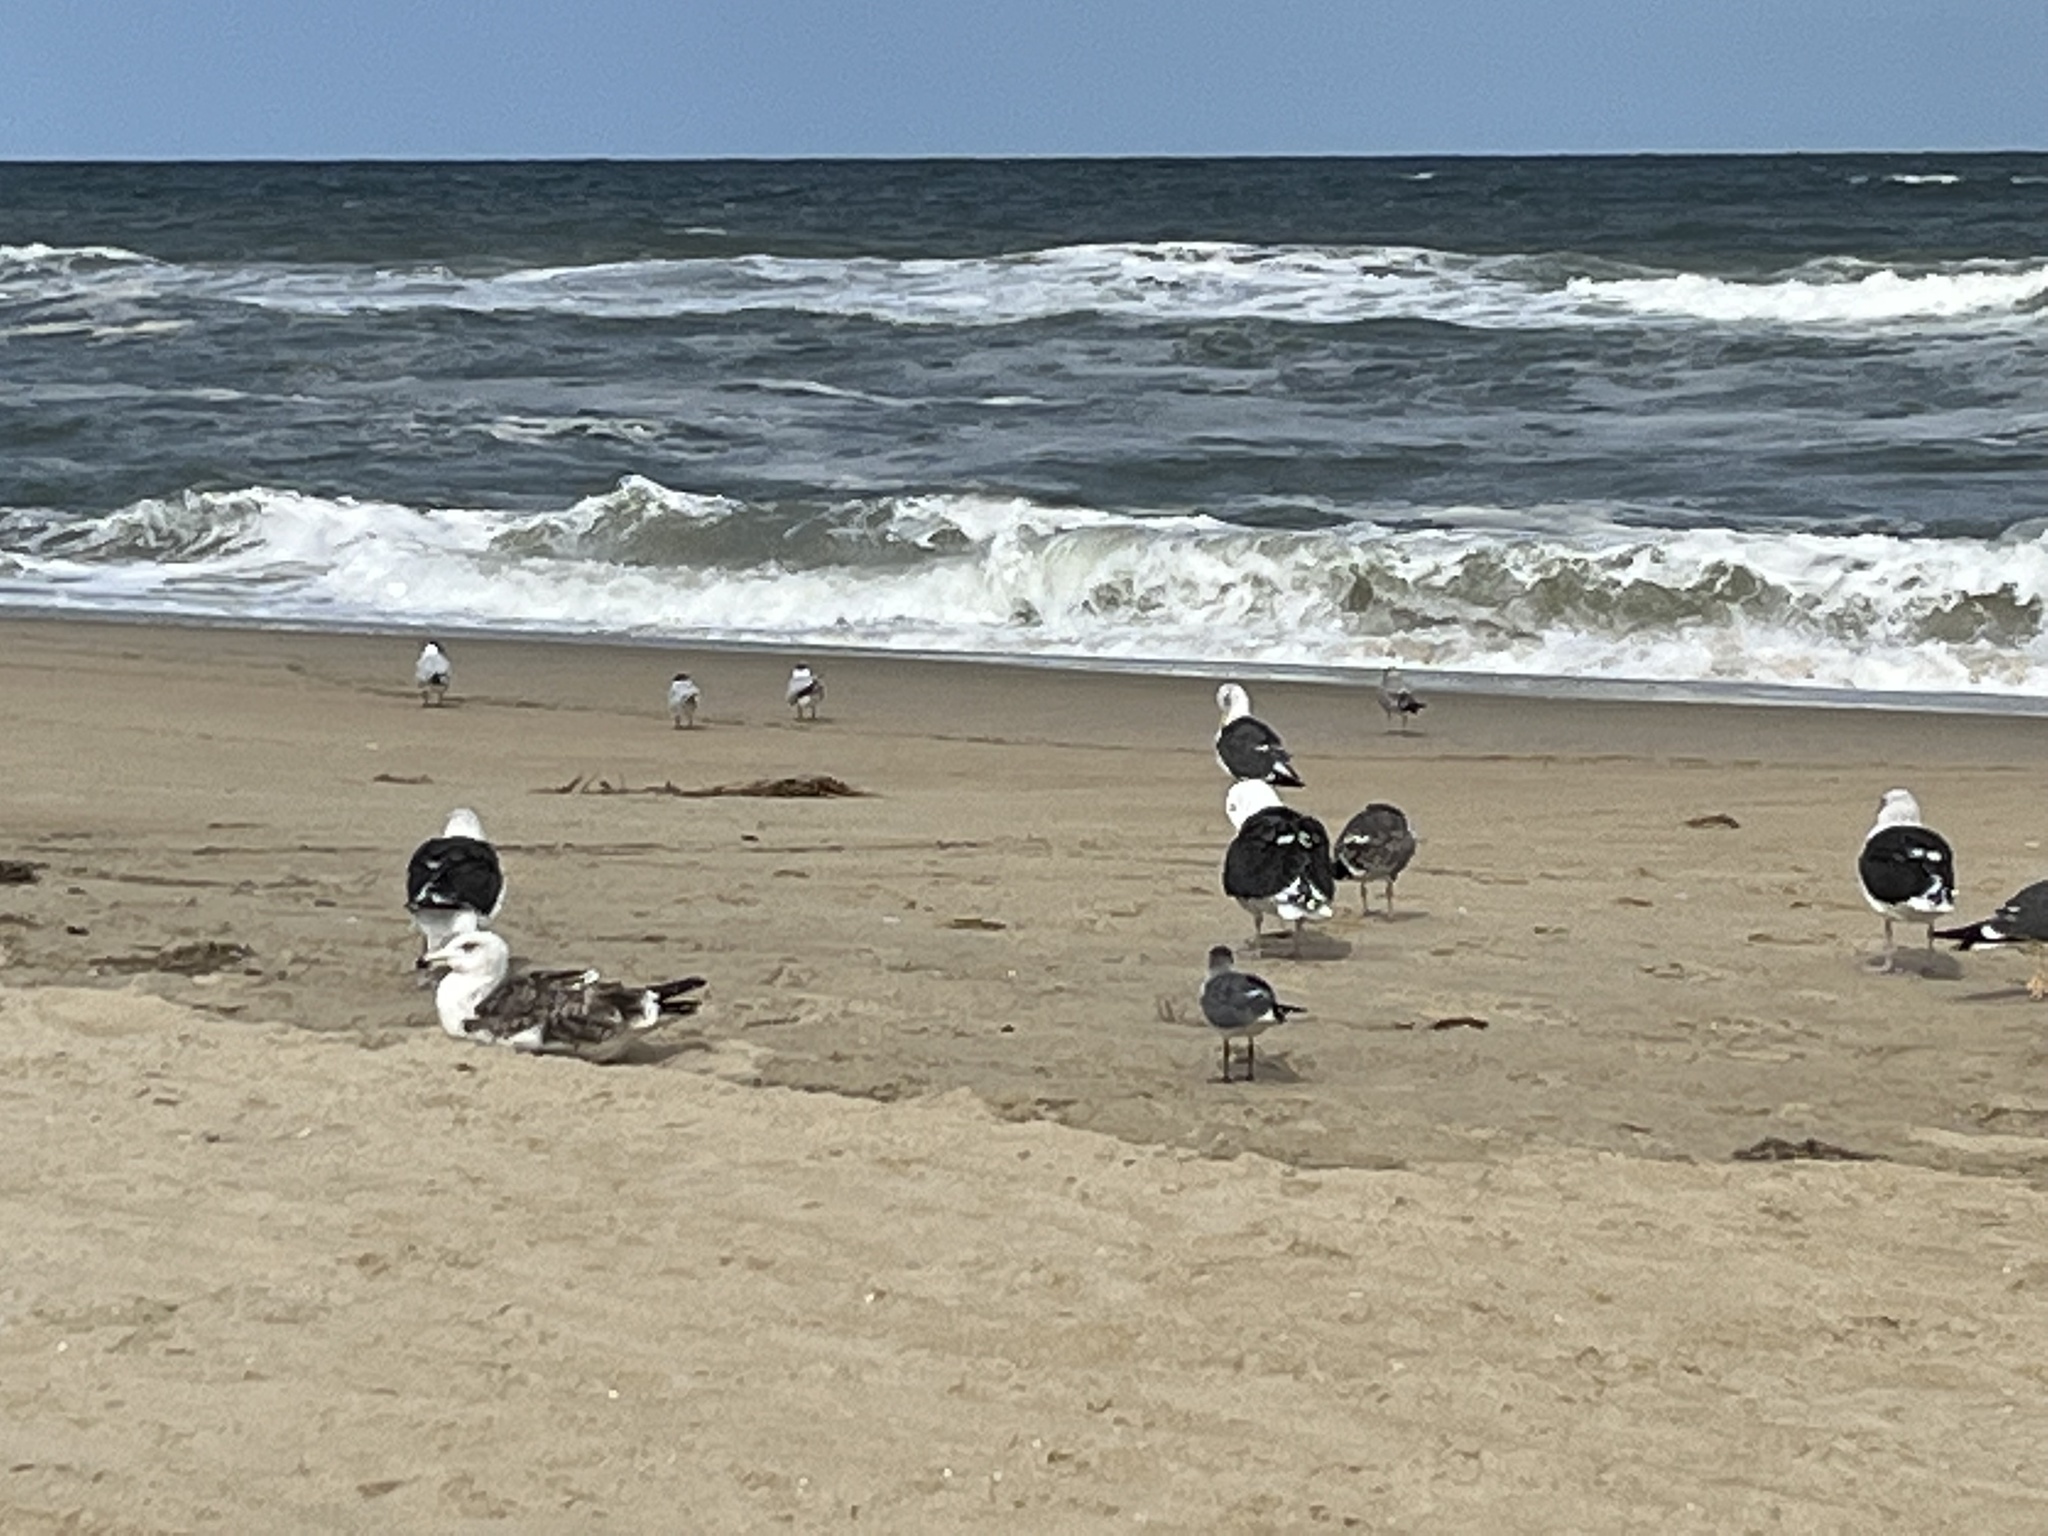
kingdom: Animalia
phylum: Chordata
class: Aves
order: Charadriiformes
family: Laridae
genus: Larus
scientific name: Larus marinus
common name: Great black-backed gull
